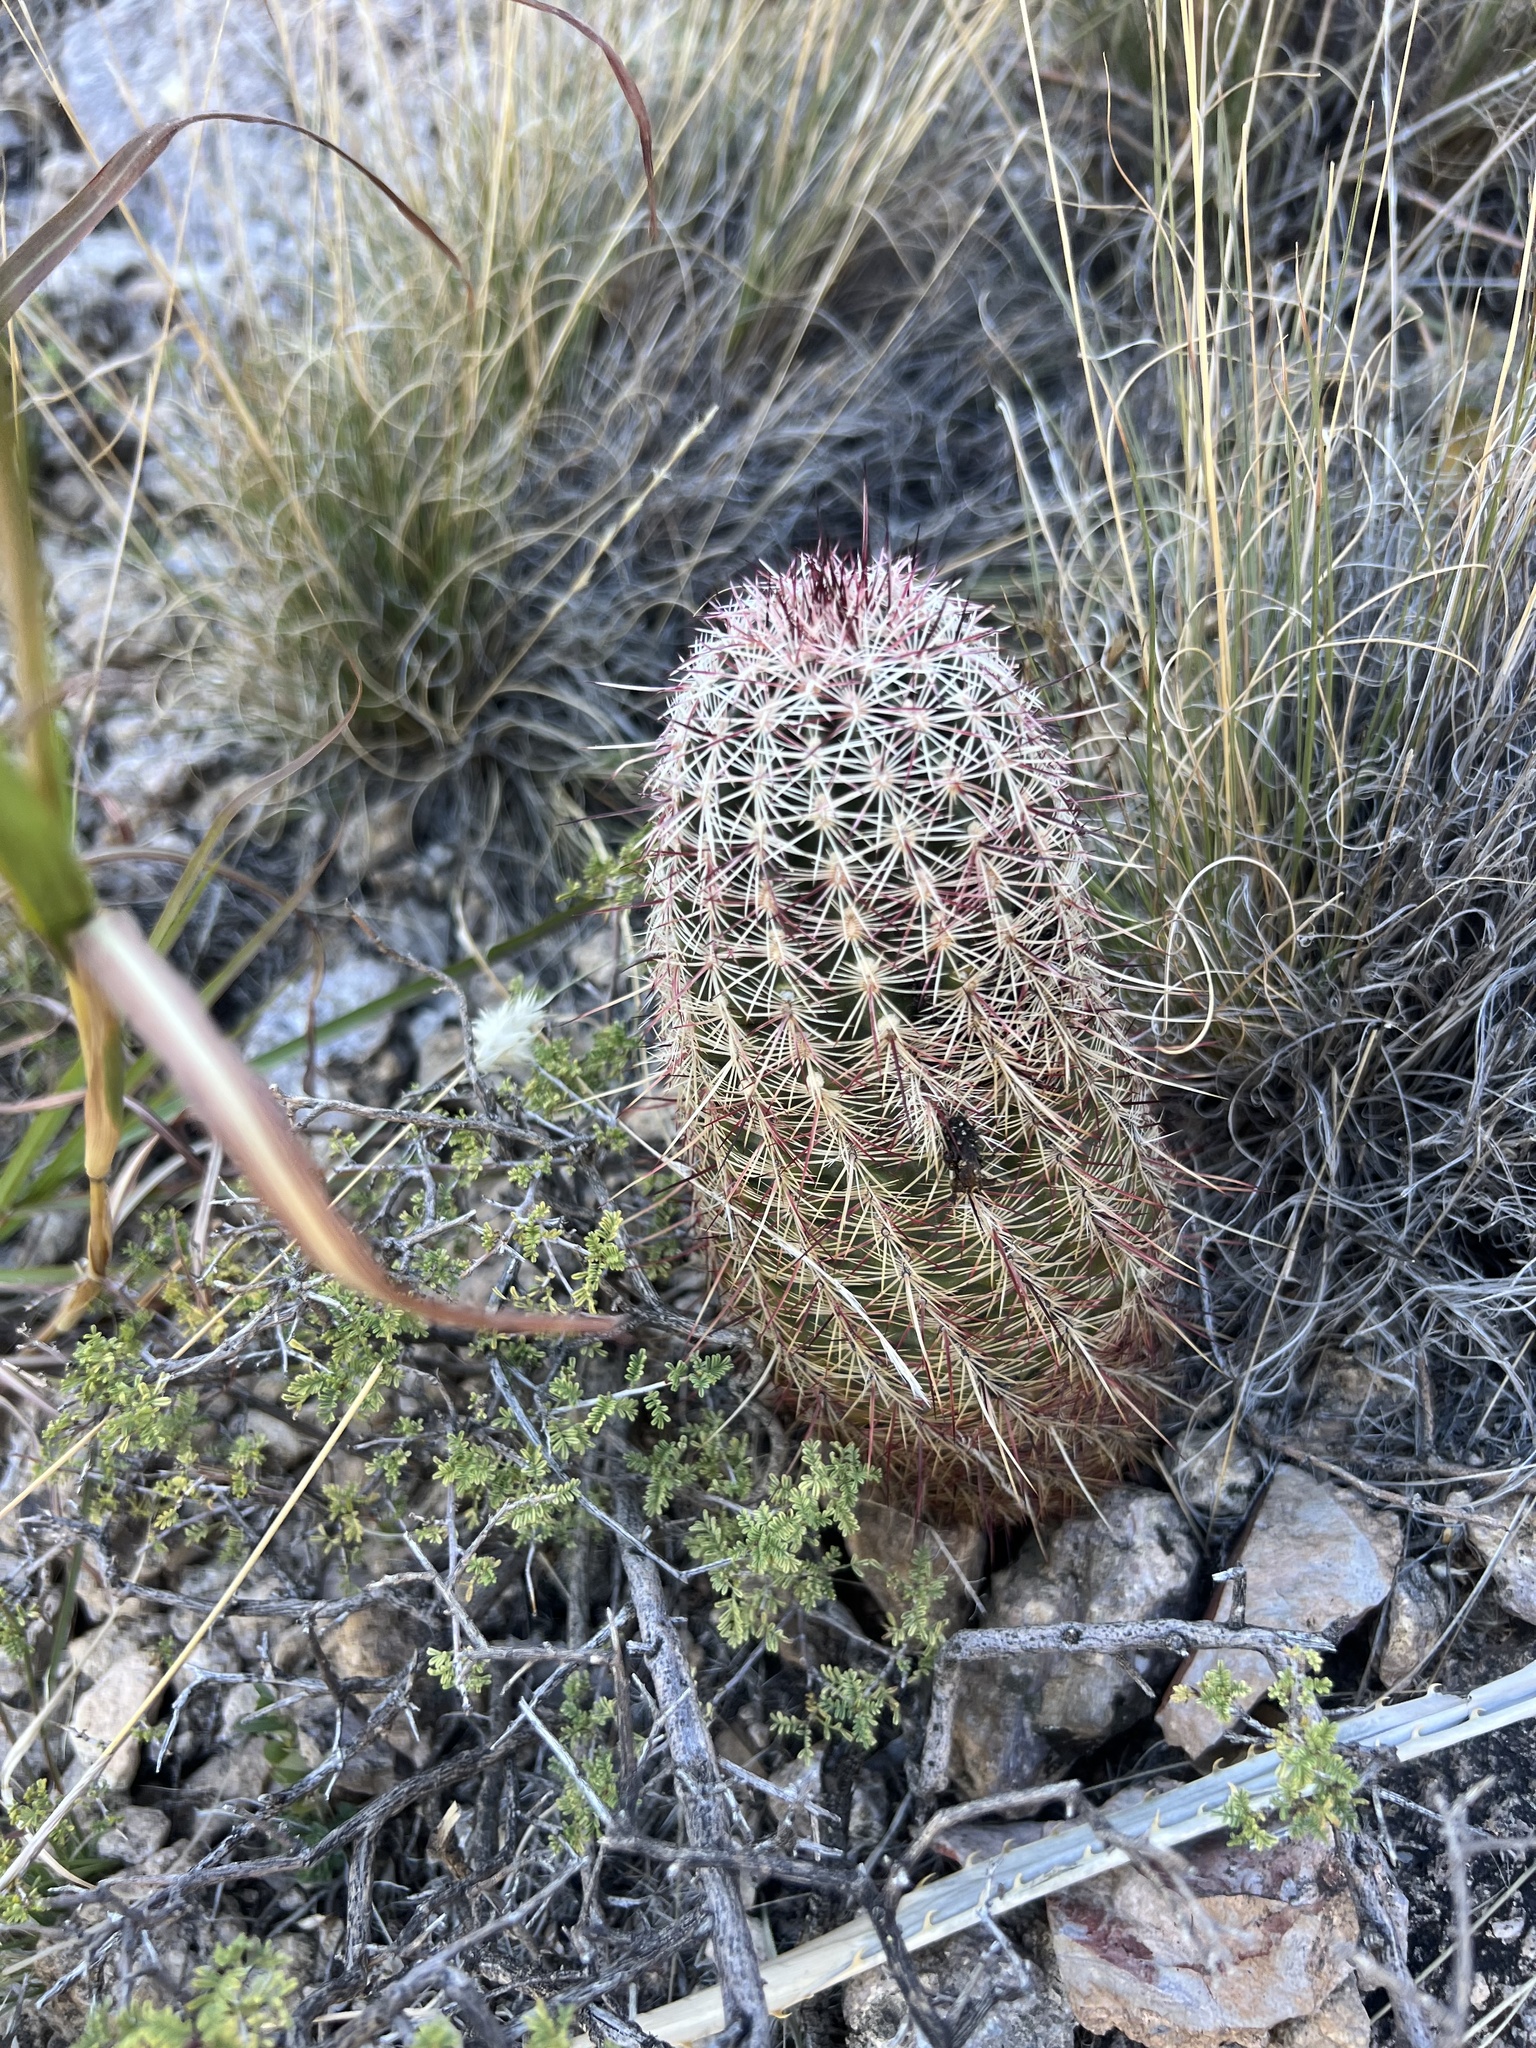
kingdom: Plantae
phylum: Tracheophyta
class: Magnoliopsida
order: Caryophyllales
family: Cactaceae
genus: Echinocereus
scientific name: Echinocereus viridiflorus
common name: Nylon hedgehog cactus
